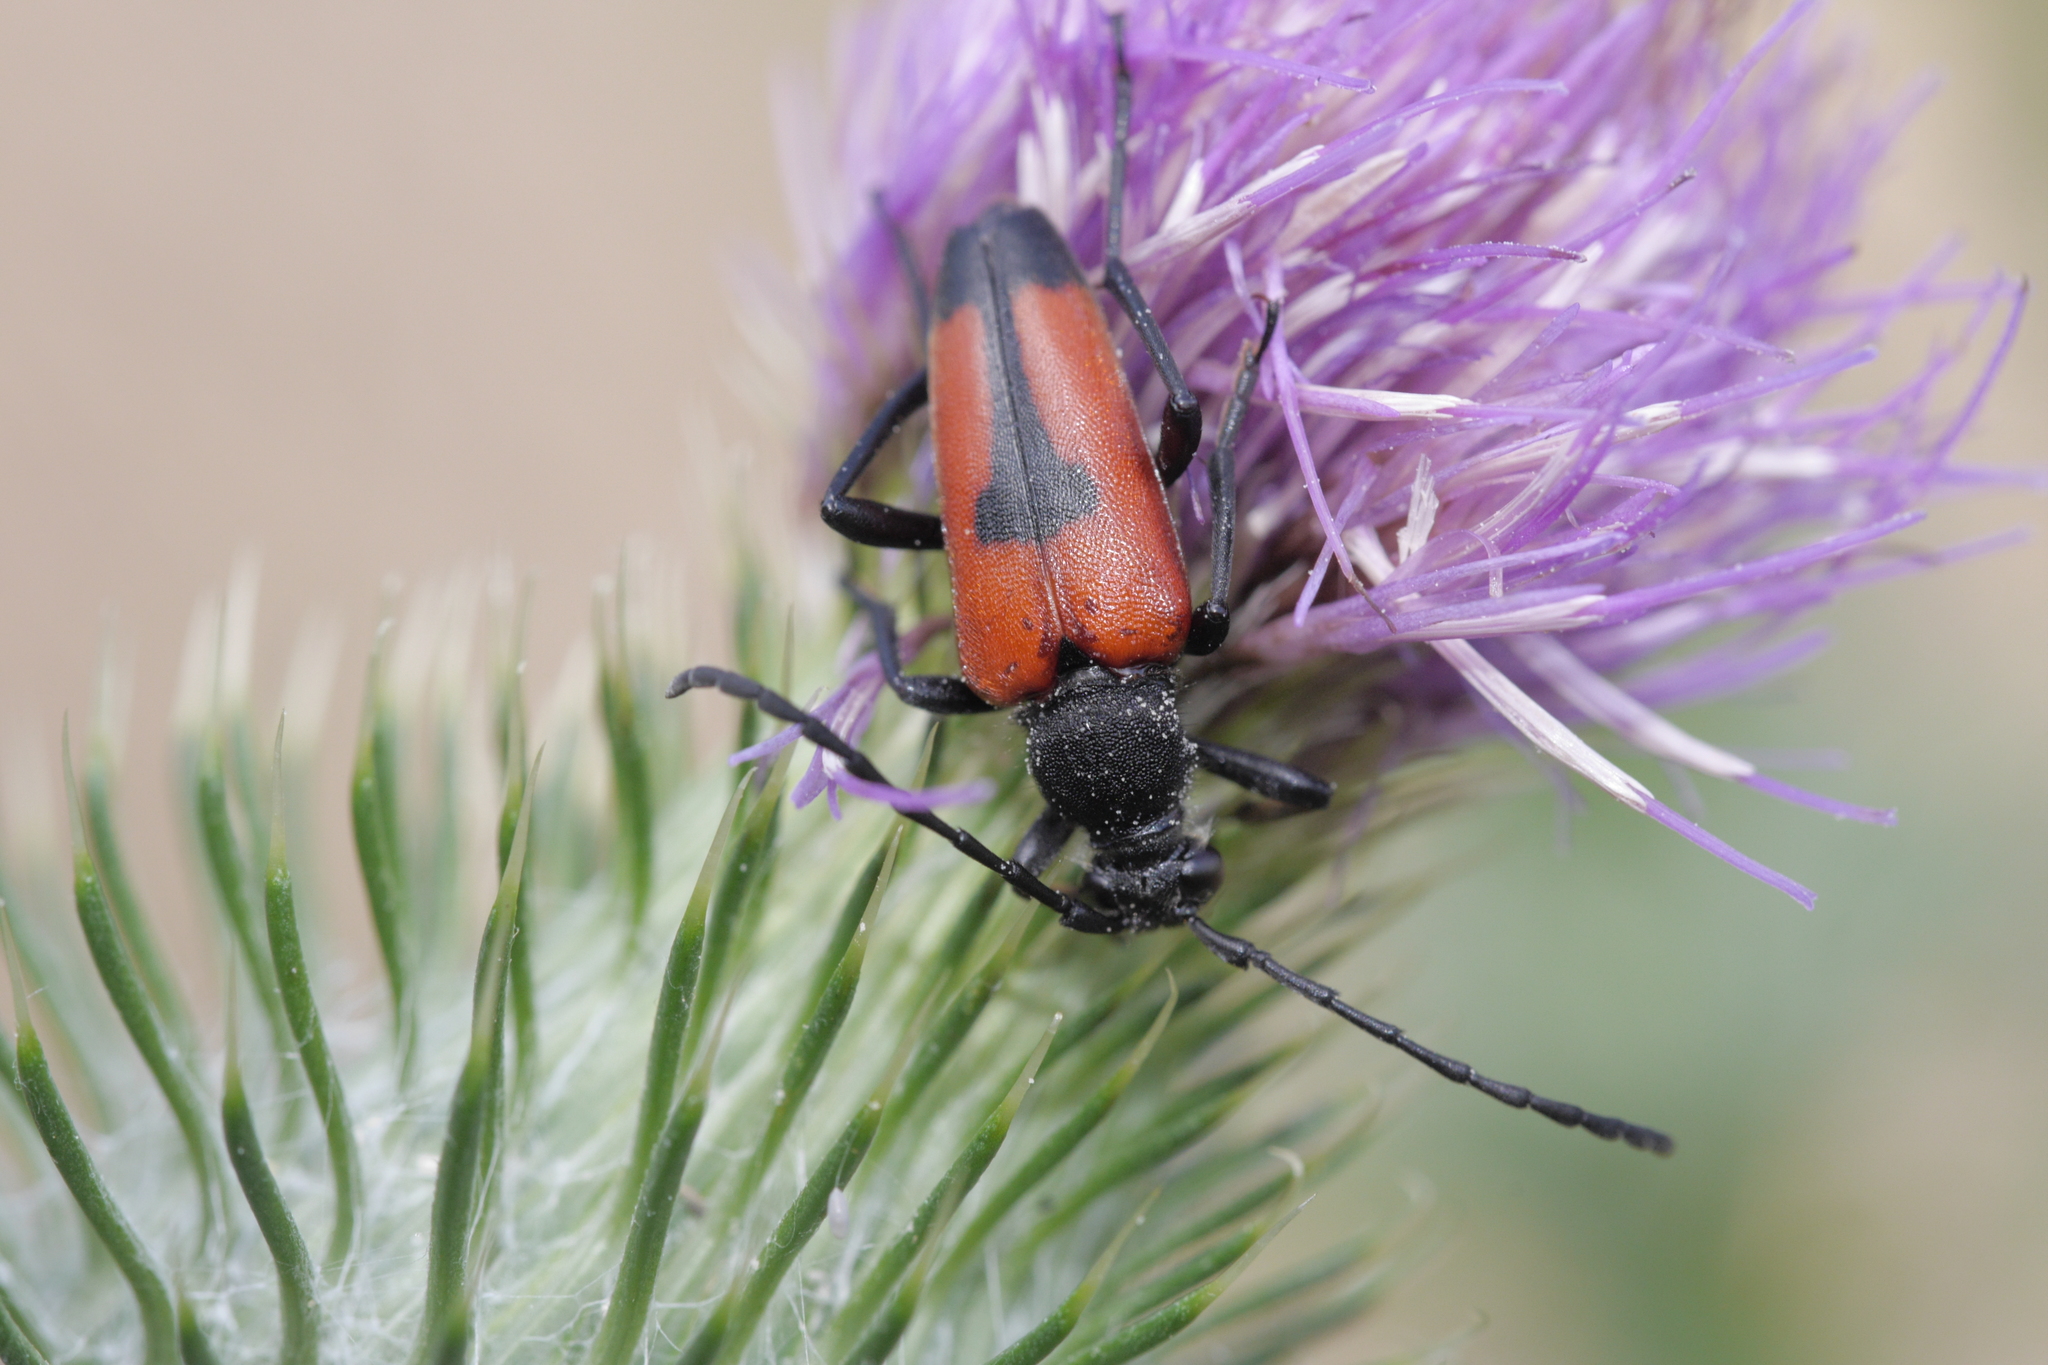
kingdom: Animalia
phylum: Arthropoda
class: Insecta
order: Coleoptera
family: Cerambycidae
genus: Stictoleptura
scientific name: Stictoleptura cordigera
